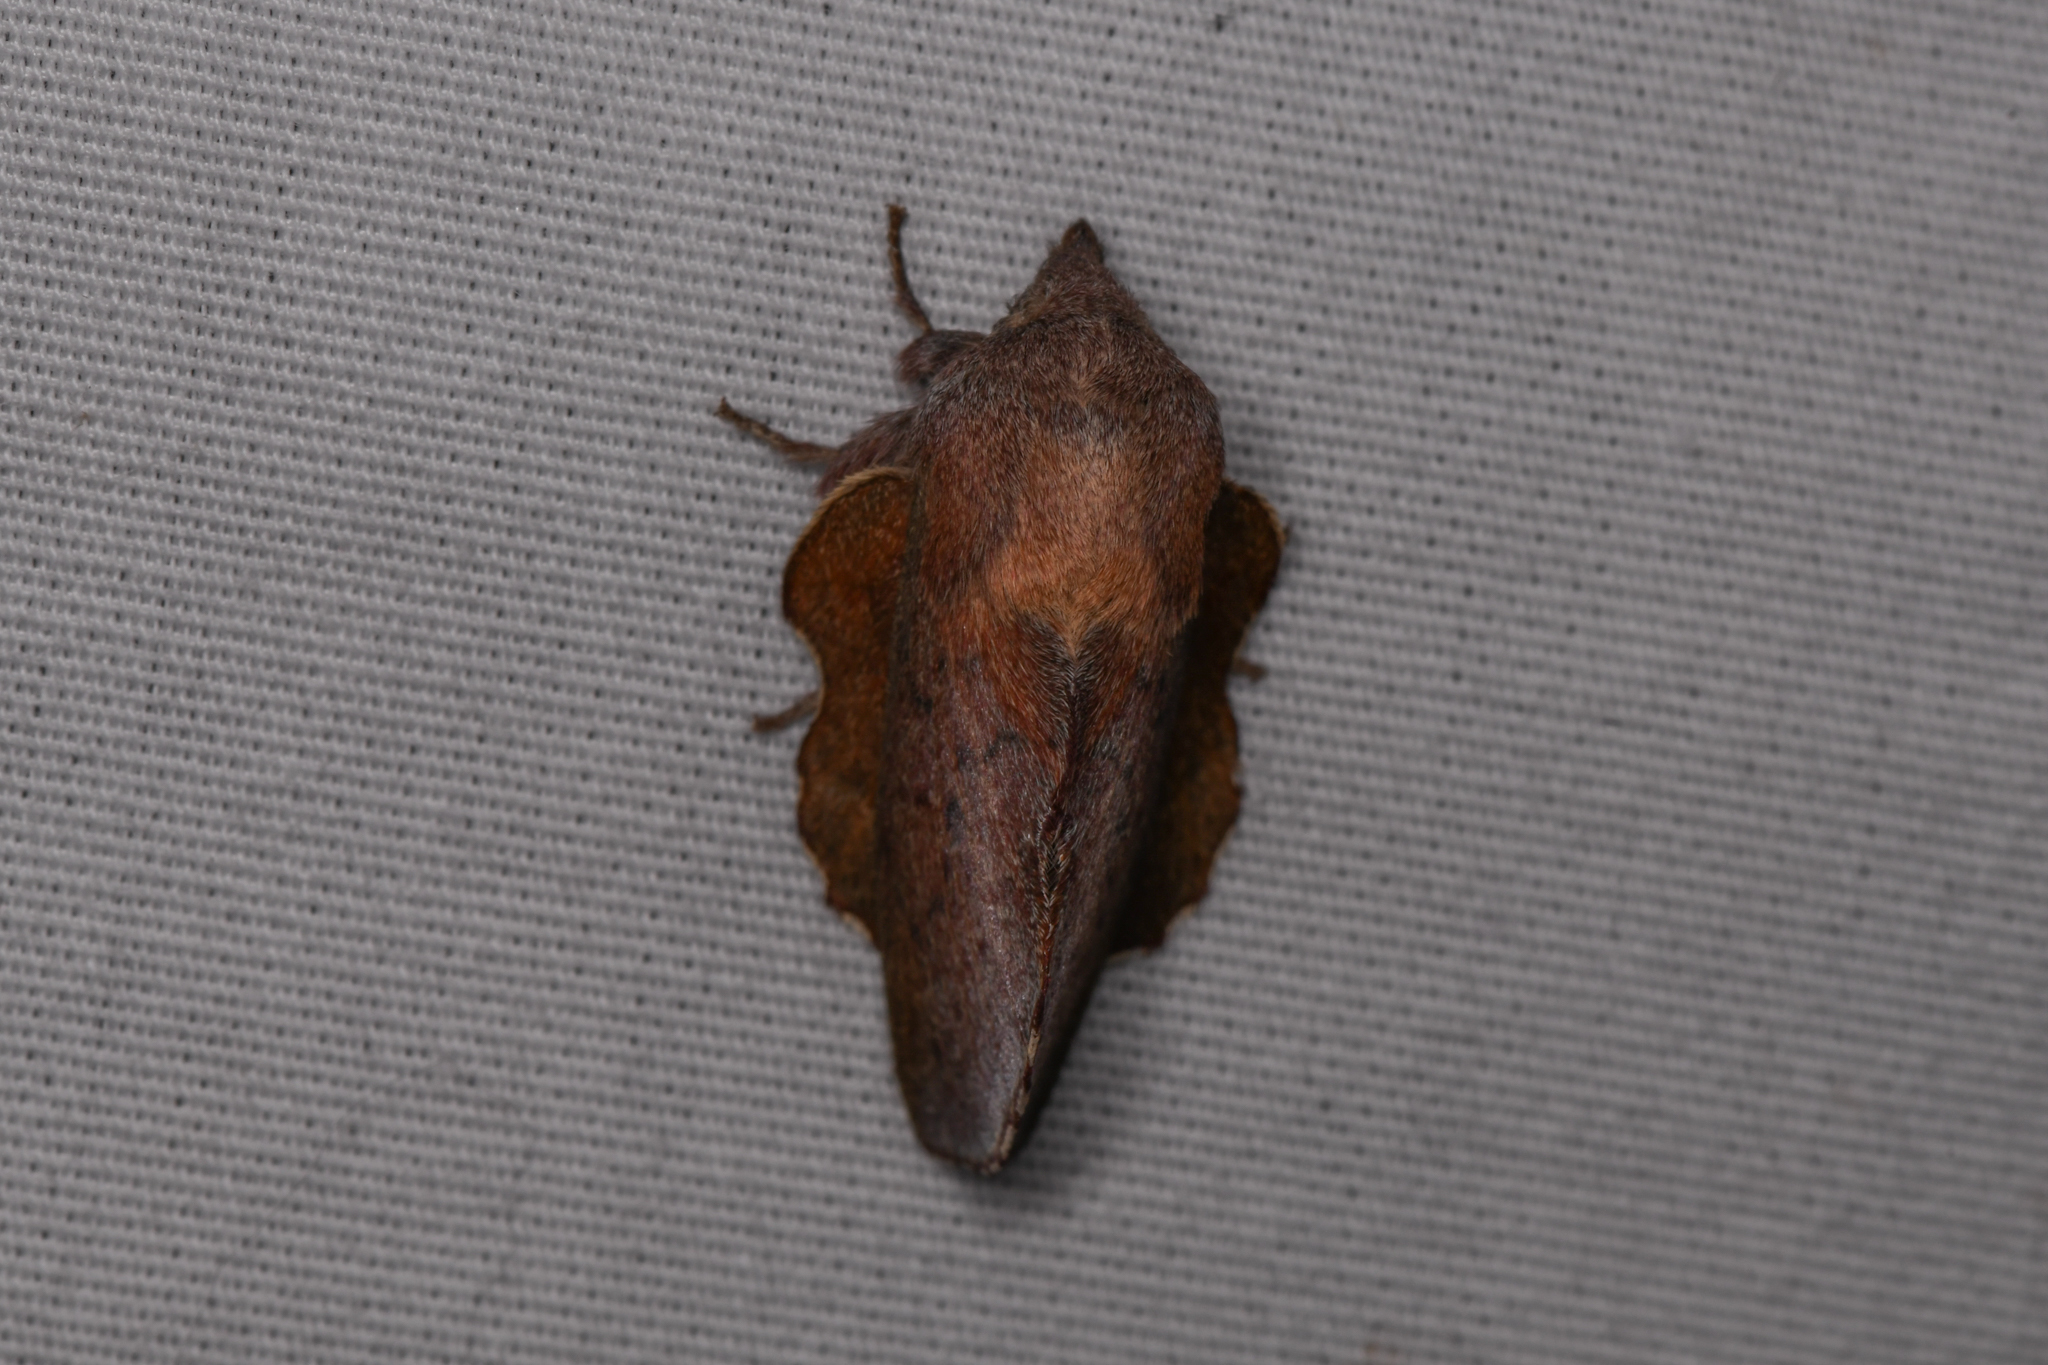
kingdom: Animalia
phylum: Arthropoda
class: Insecta
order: Lepidoptera
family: Lasiocampidae
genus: Phyllodesma
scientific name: Phyllodesma americana
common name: American lappet moth
